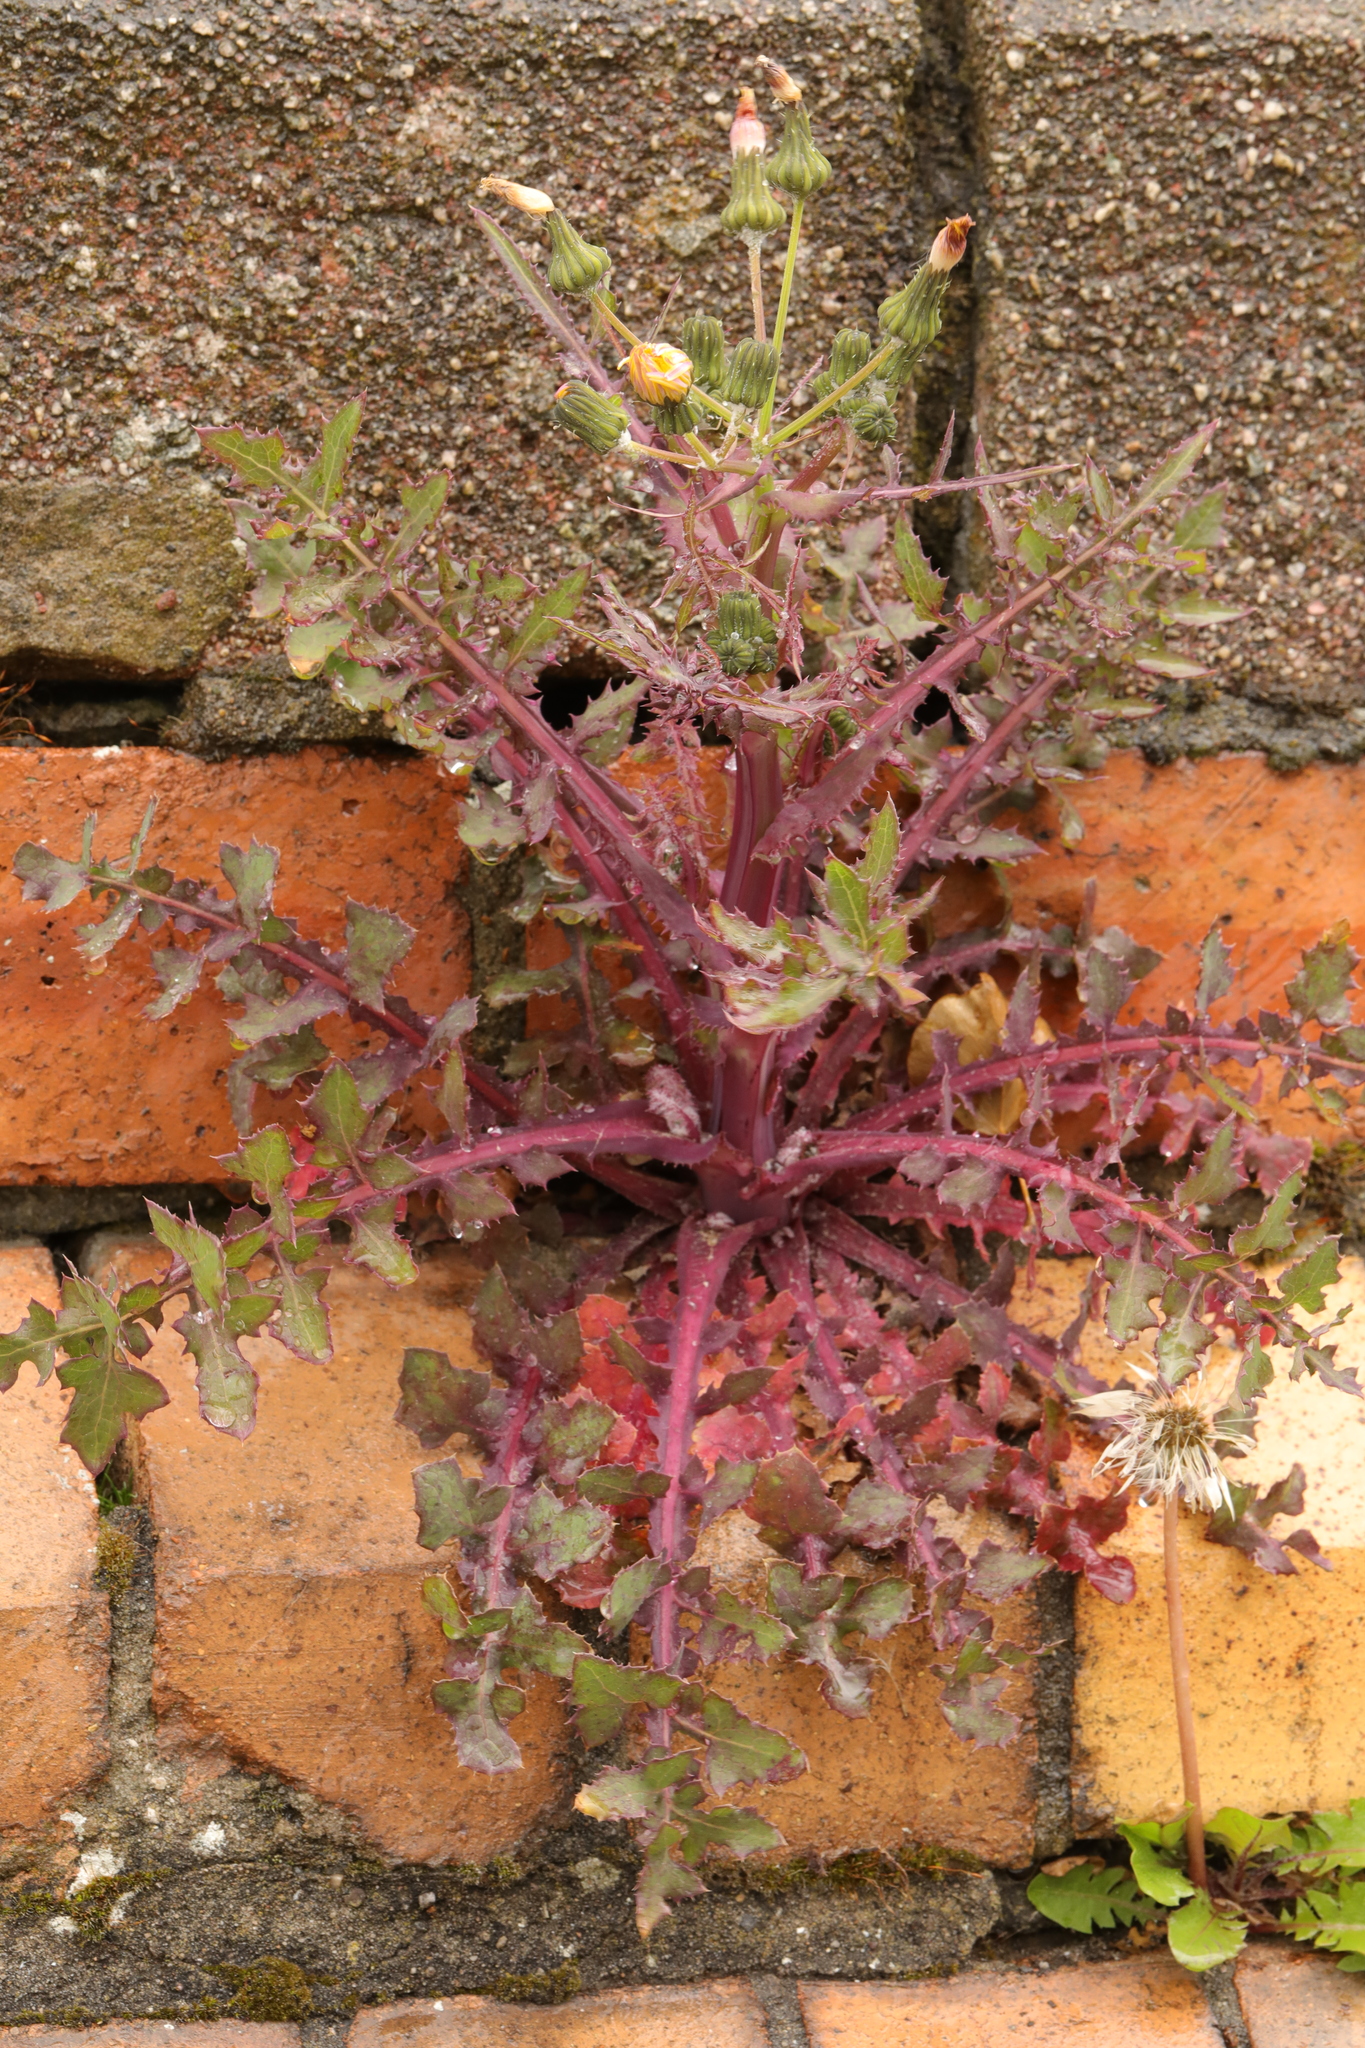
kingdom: Plantae
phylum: Tracheophyta
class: Magnoliopsida
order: Asterales
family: Asteraceae
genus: Sonchus
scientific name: Sonchus oleraceus
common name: Common sowthistle
